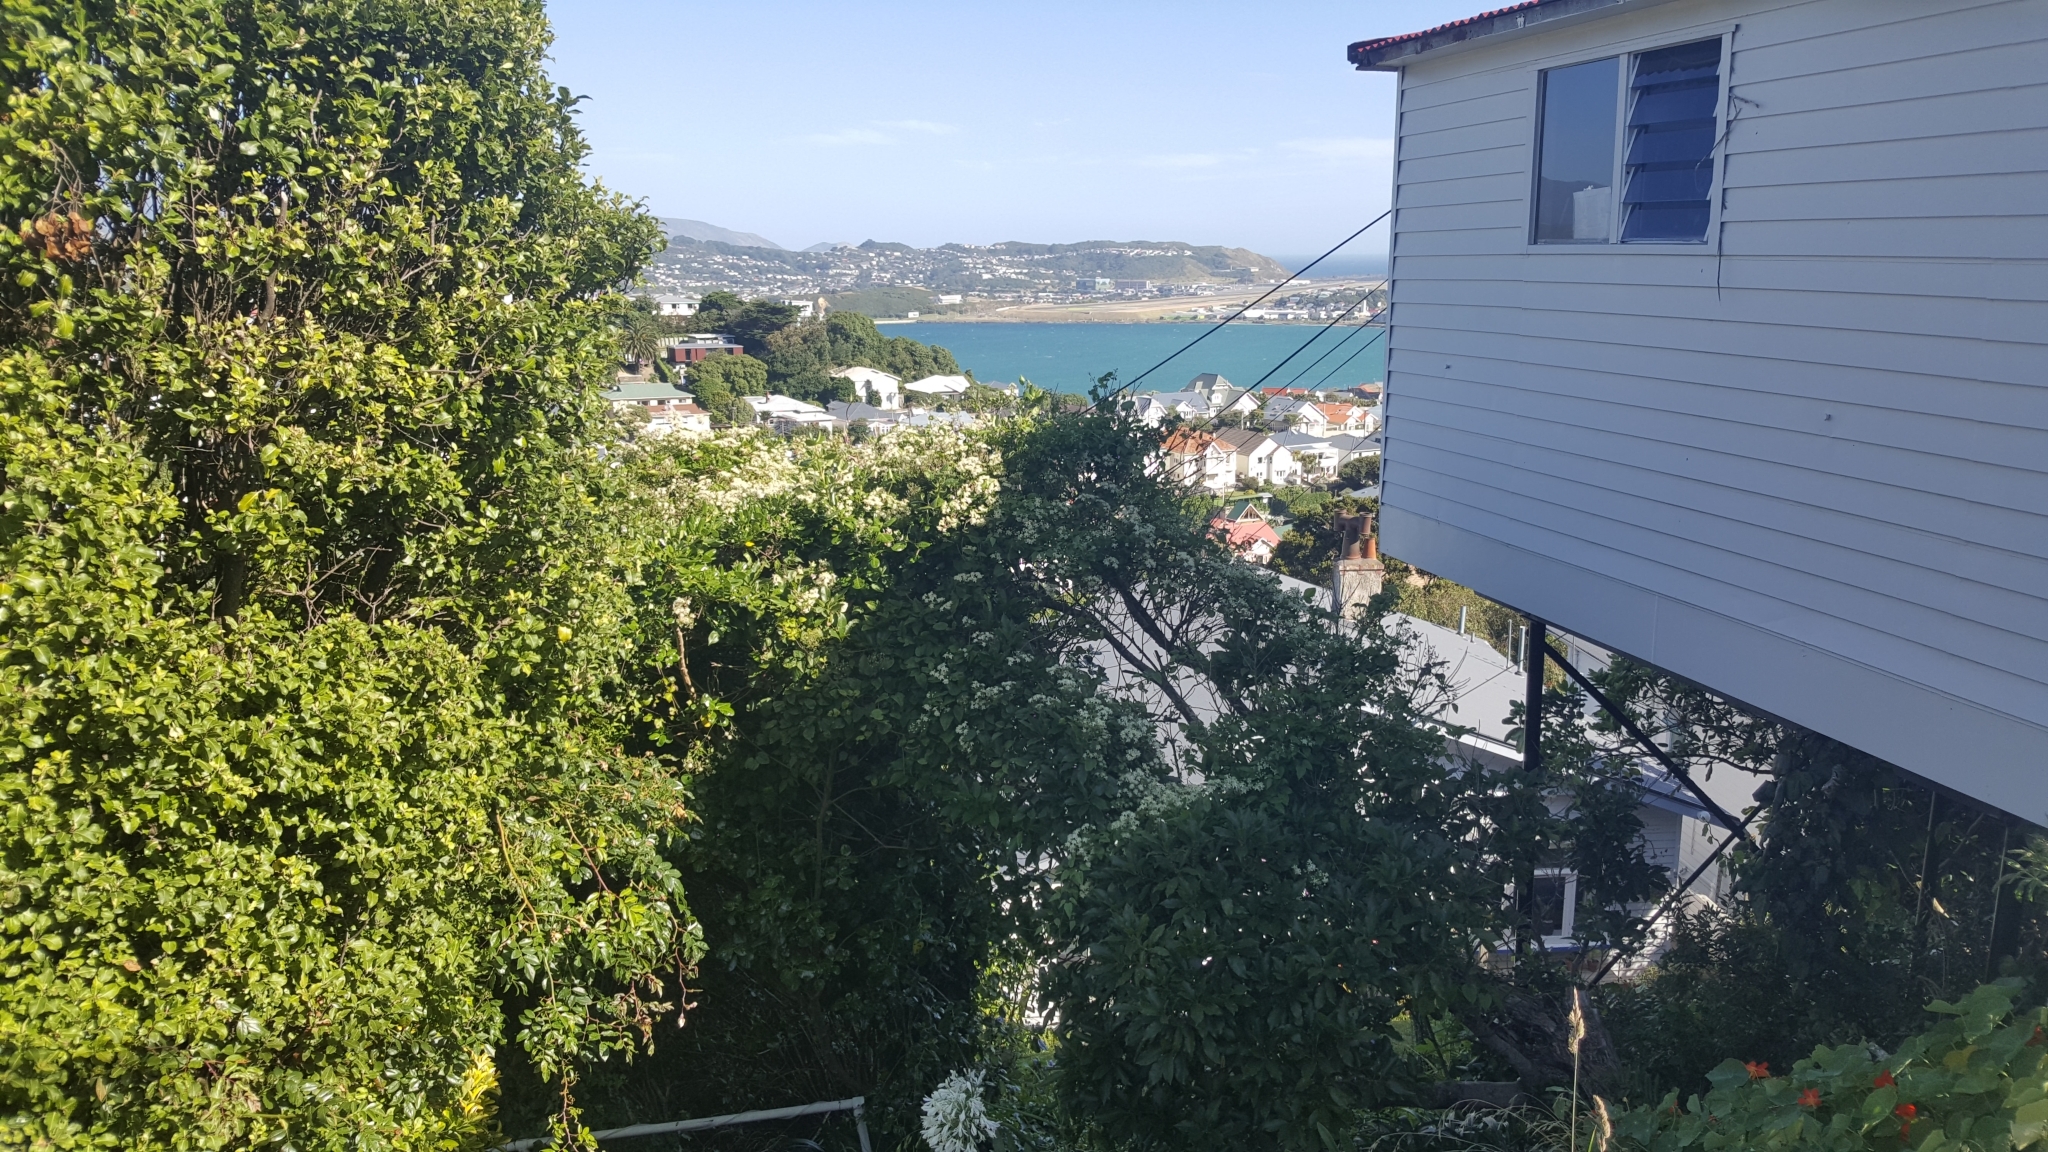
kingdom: Plantae
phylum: Tracheophyta
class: Magnoliopsida
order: Ranunculales
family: Ranunculaceae
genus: Clematis
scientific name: Clematis vitalba
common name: Evergreen clematis
